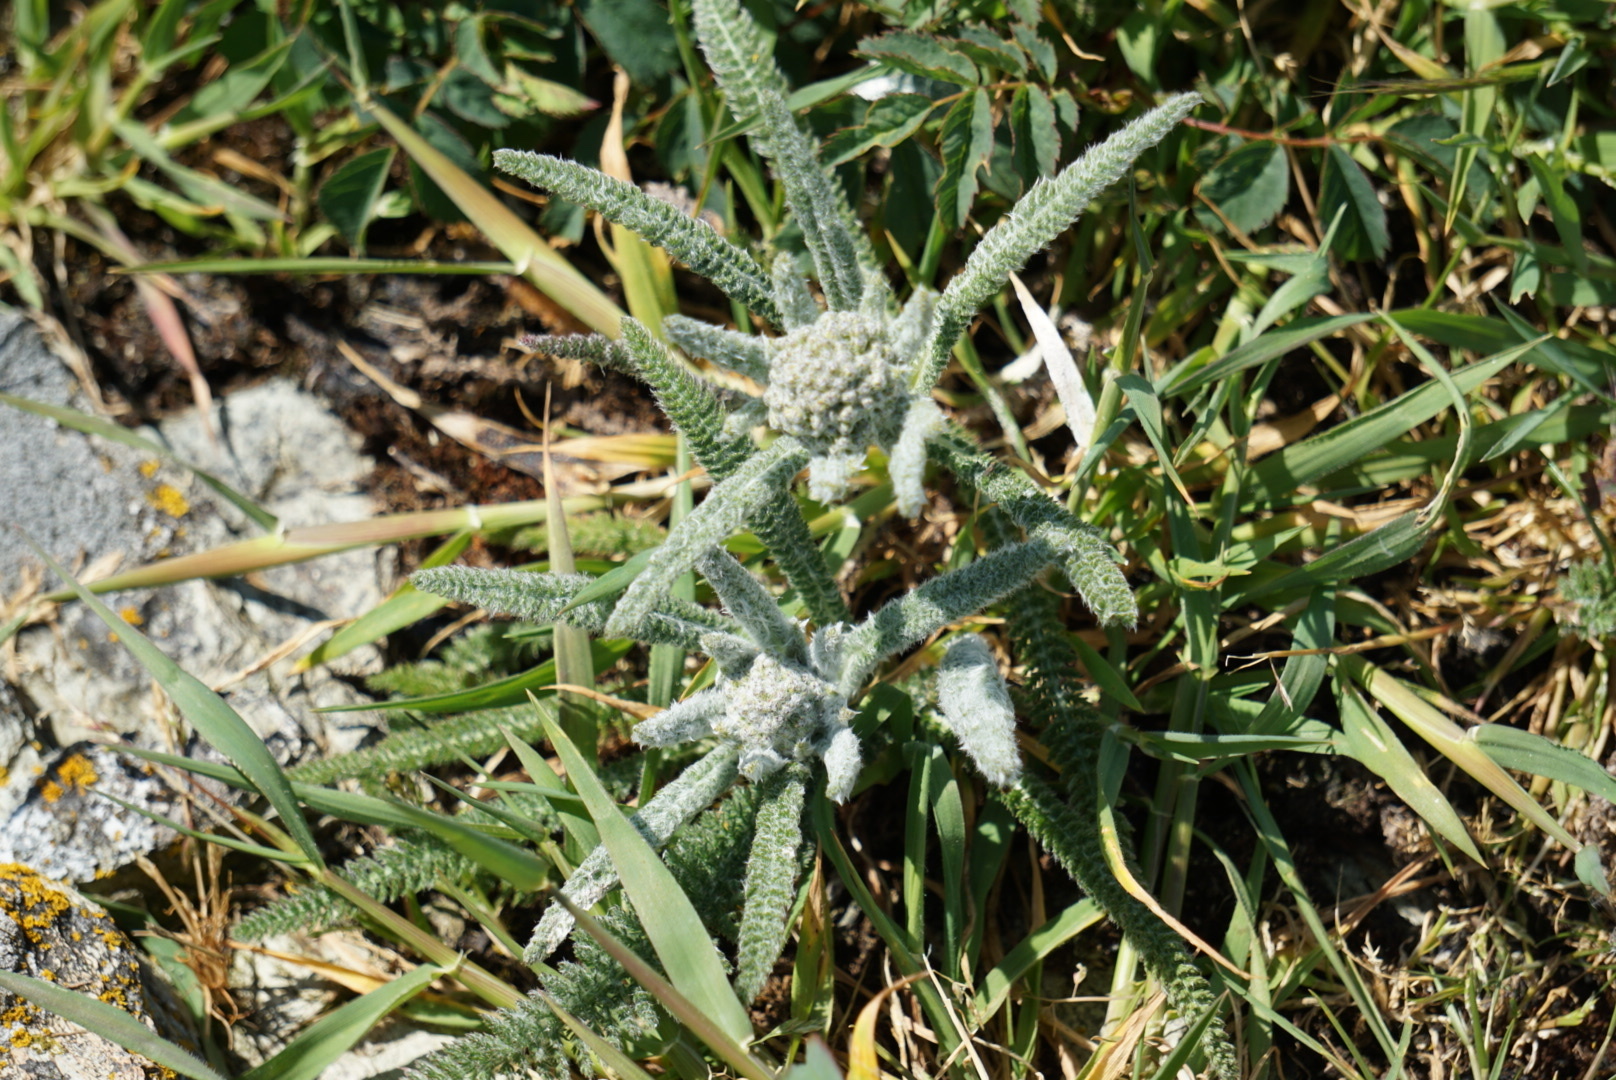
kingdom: Plantae
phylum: Tracheophyta
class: Magnoliopsida
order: Asterales
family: Asteraceae
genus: Achillea
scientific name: Achillea millefolium
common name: Yarrow
